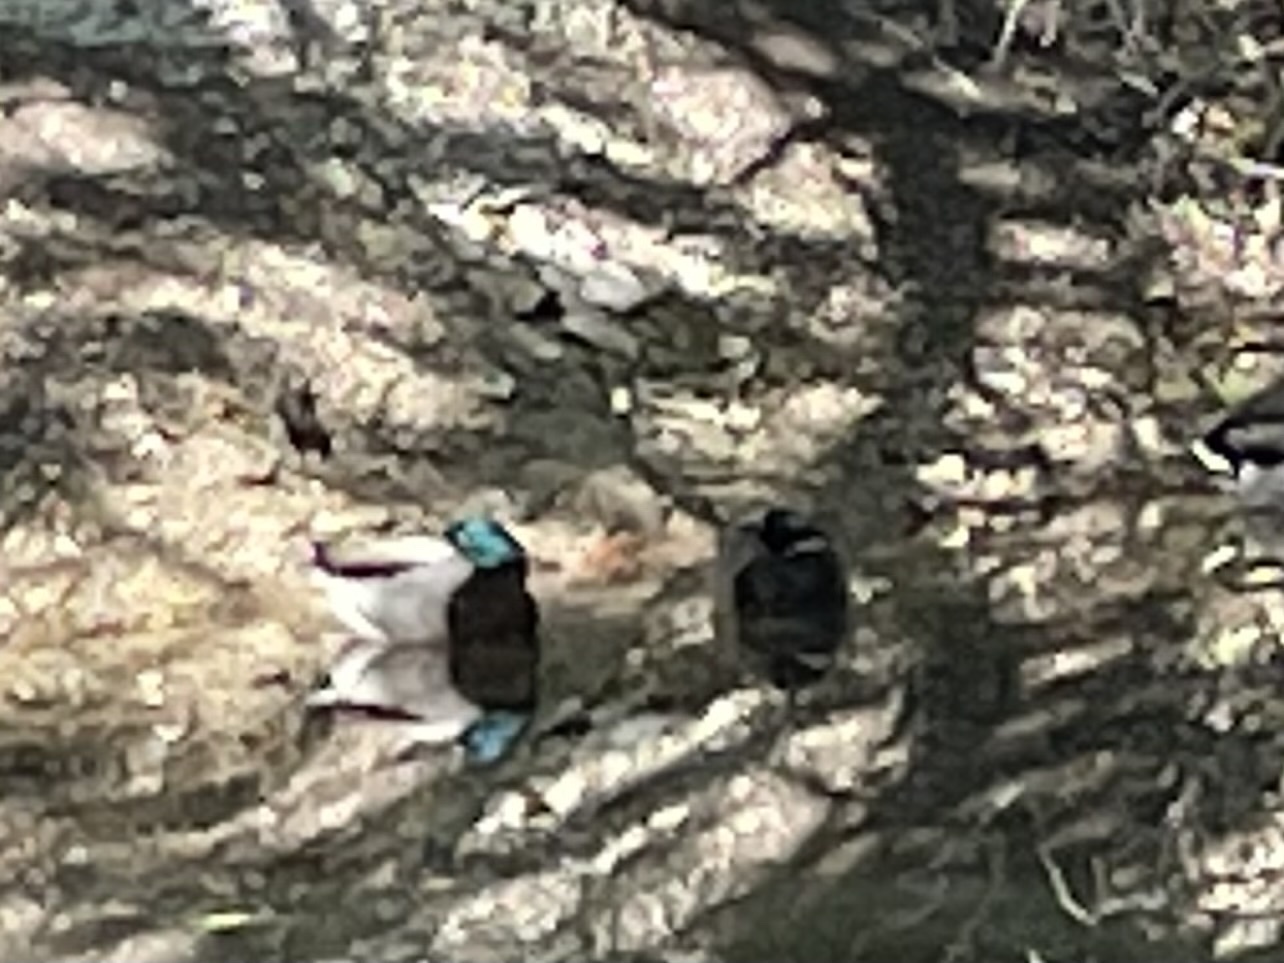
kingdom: Animalia
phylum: Chordata
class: Aves
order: Anseriformes
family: Anatidae
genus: Anas
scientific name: Anas platyrhynchos
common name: Mallard
